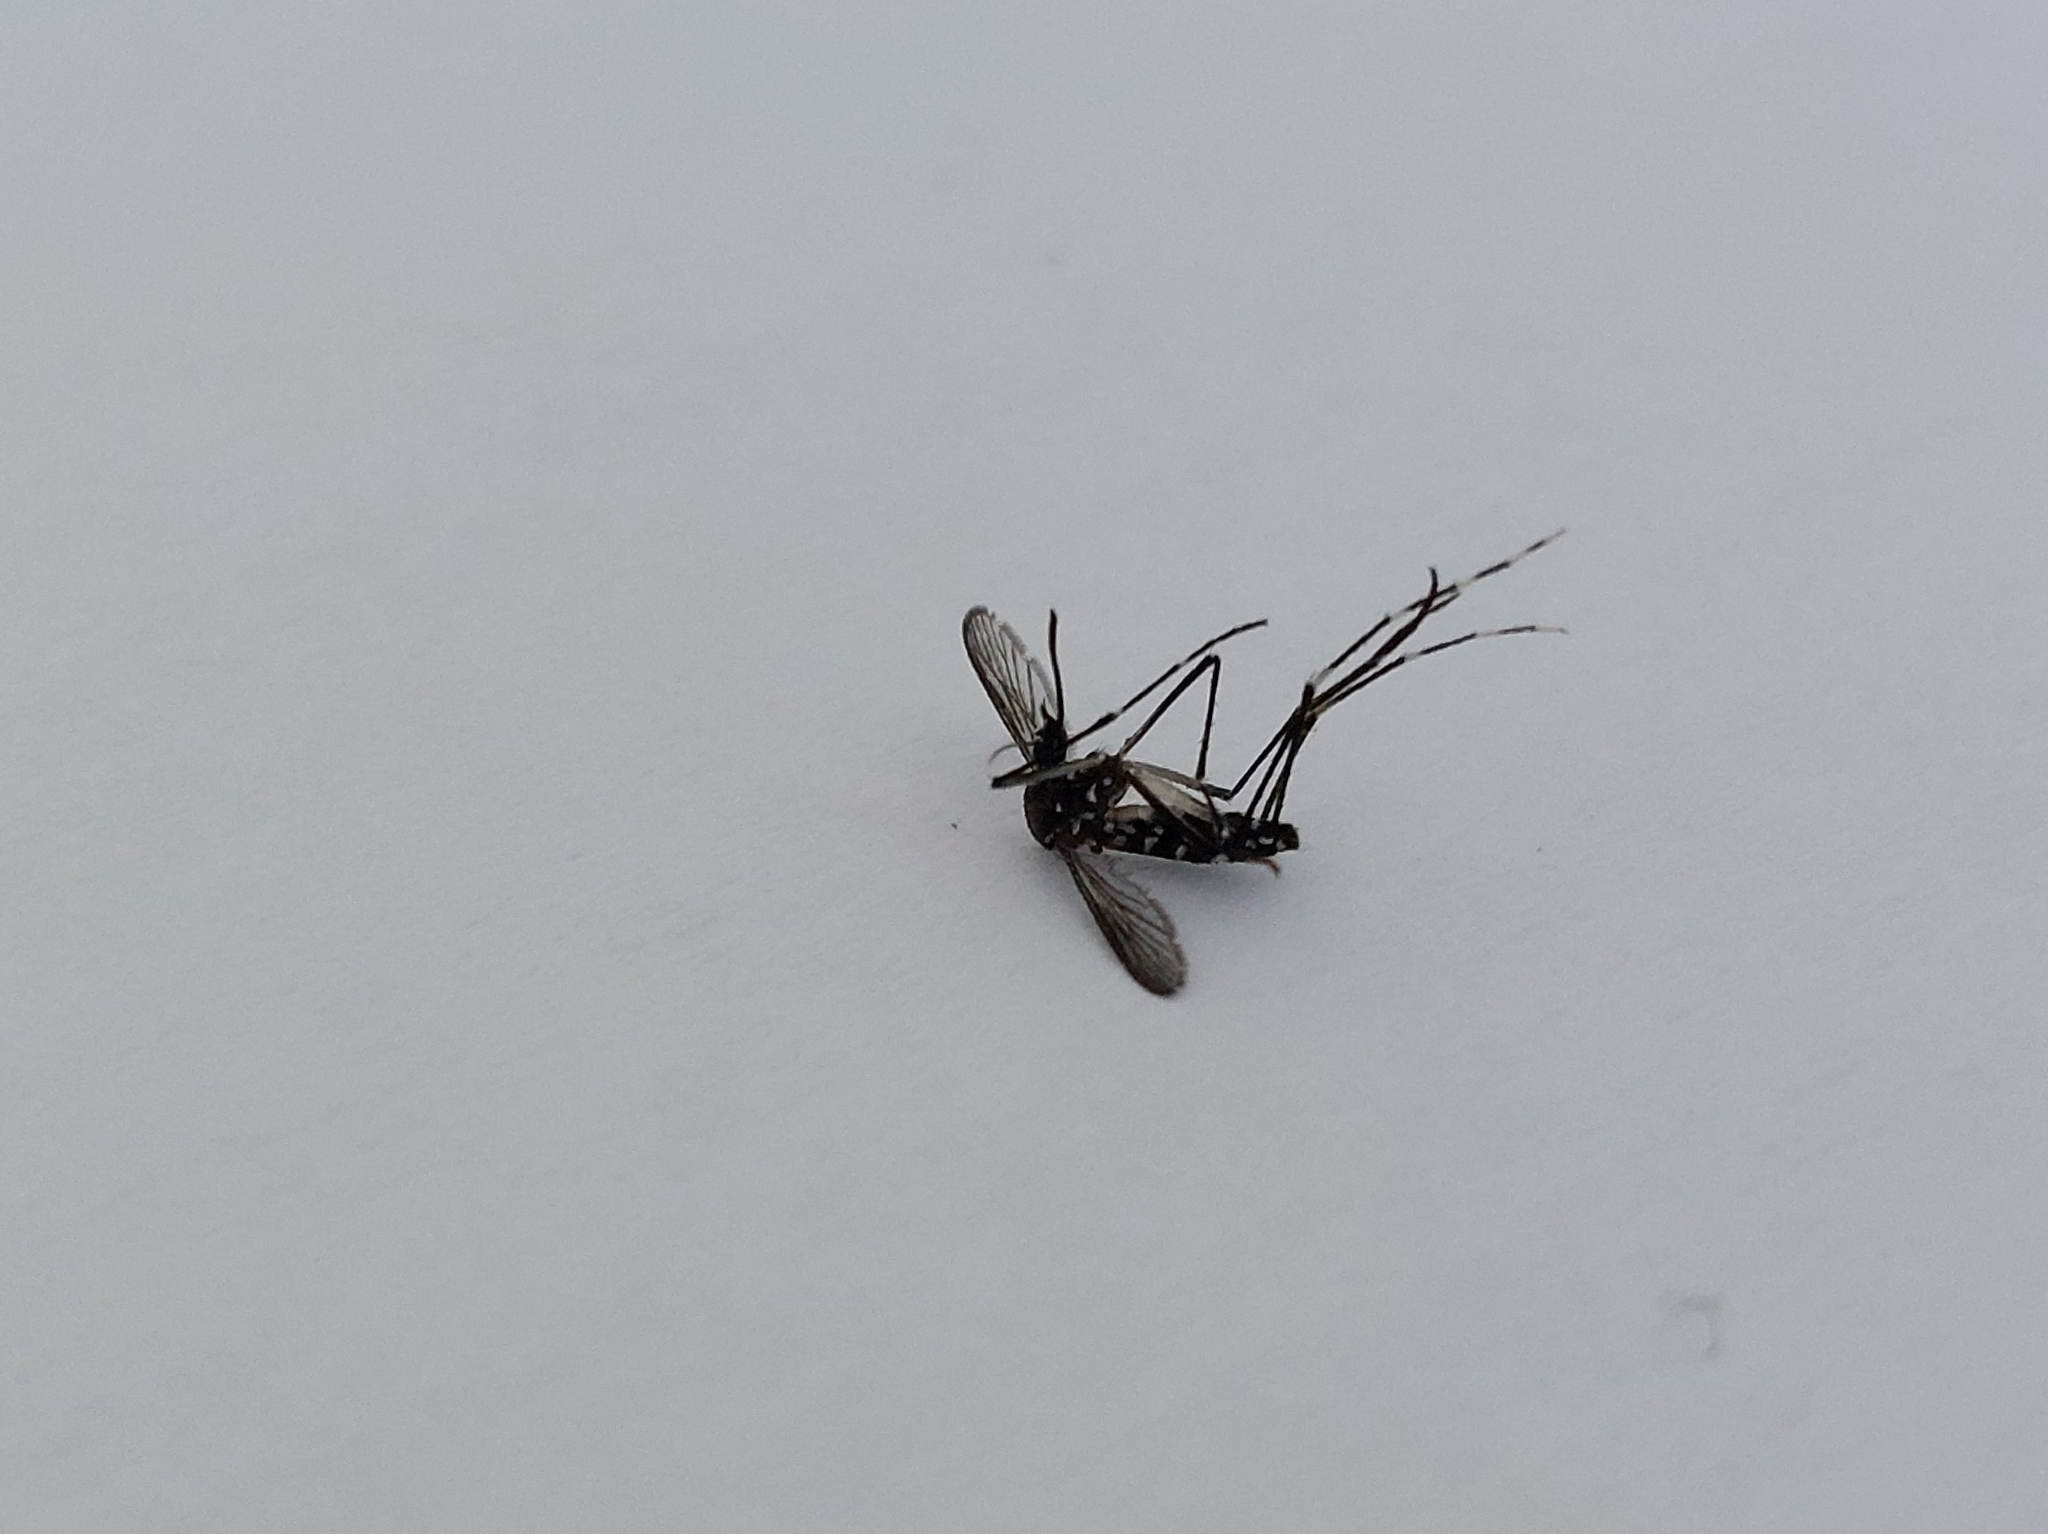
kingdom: Animalia
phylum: Arthropoda
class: Insecta
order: Diptera
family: Culicidae
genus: Aedes
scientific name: Aedes albopictus
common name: Tiger mosquito
